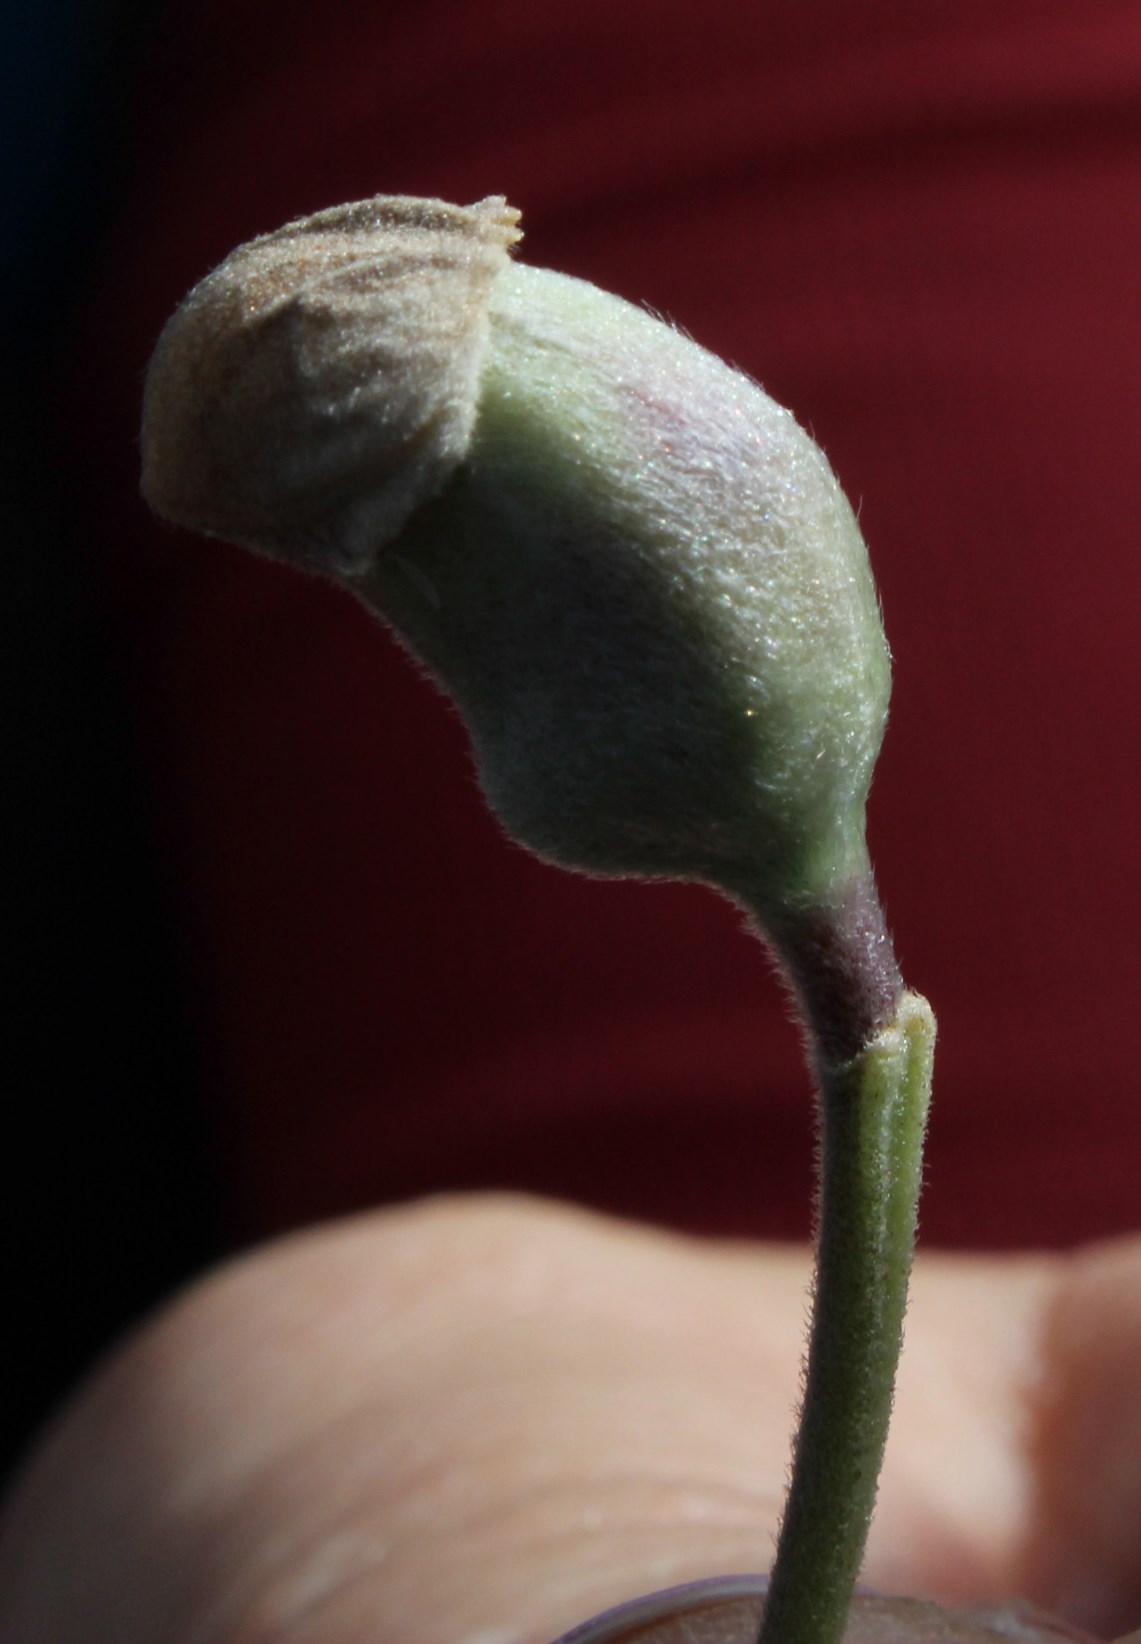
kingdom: Plantae
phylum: Tracheophyta
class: Magnoliopsida
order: Fabales
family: Fabaceae
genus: Podalyria
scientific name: Podalyria calyptrata
